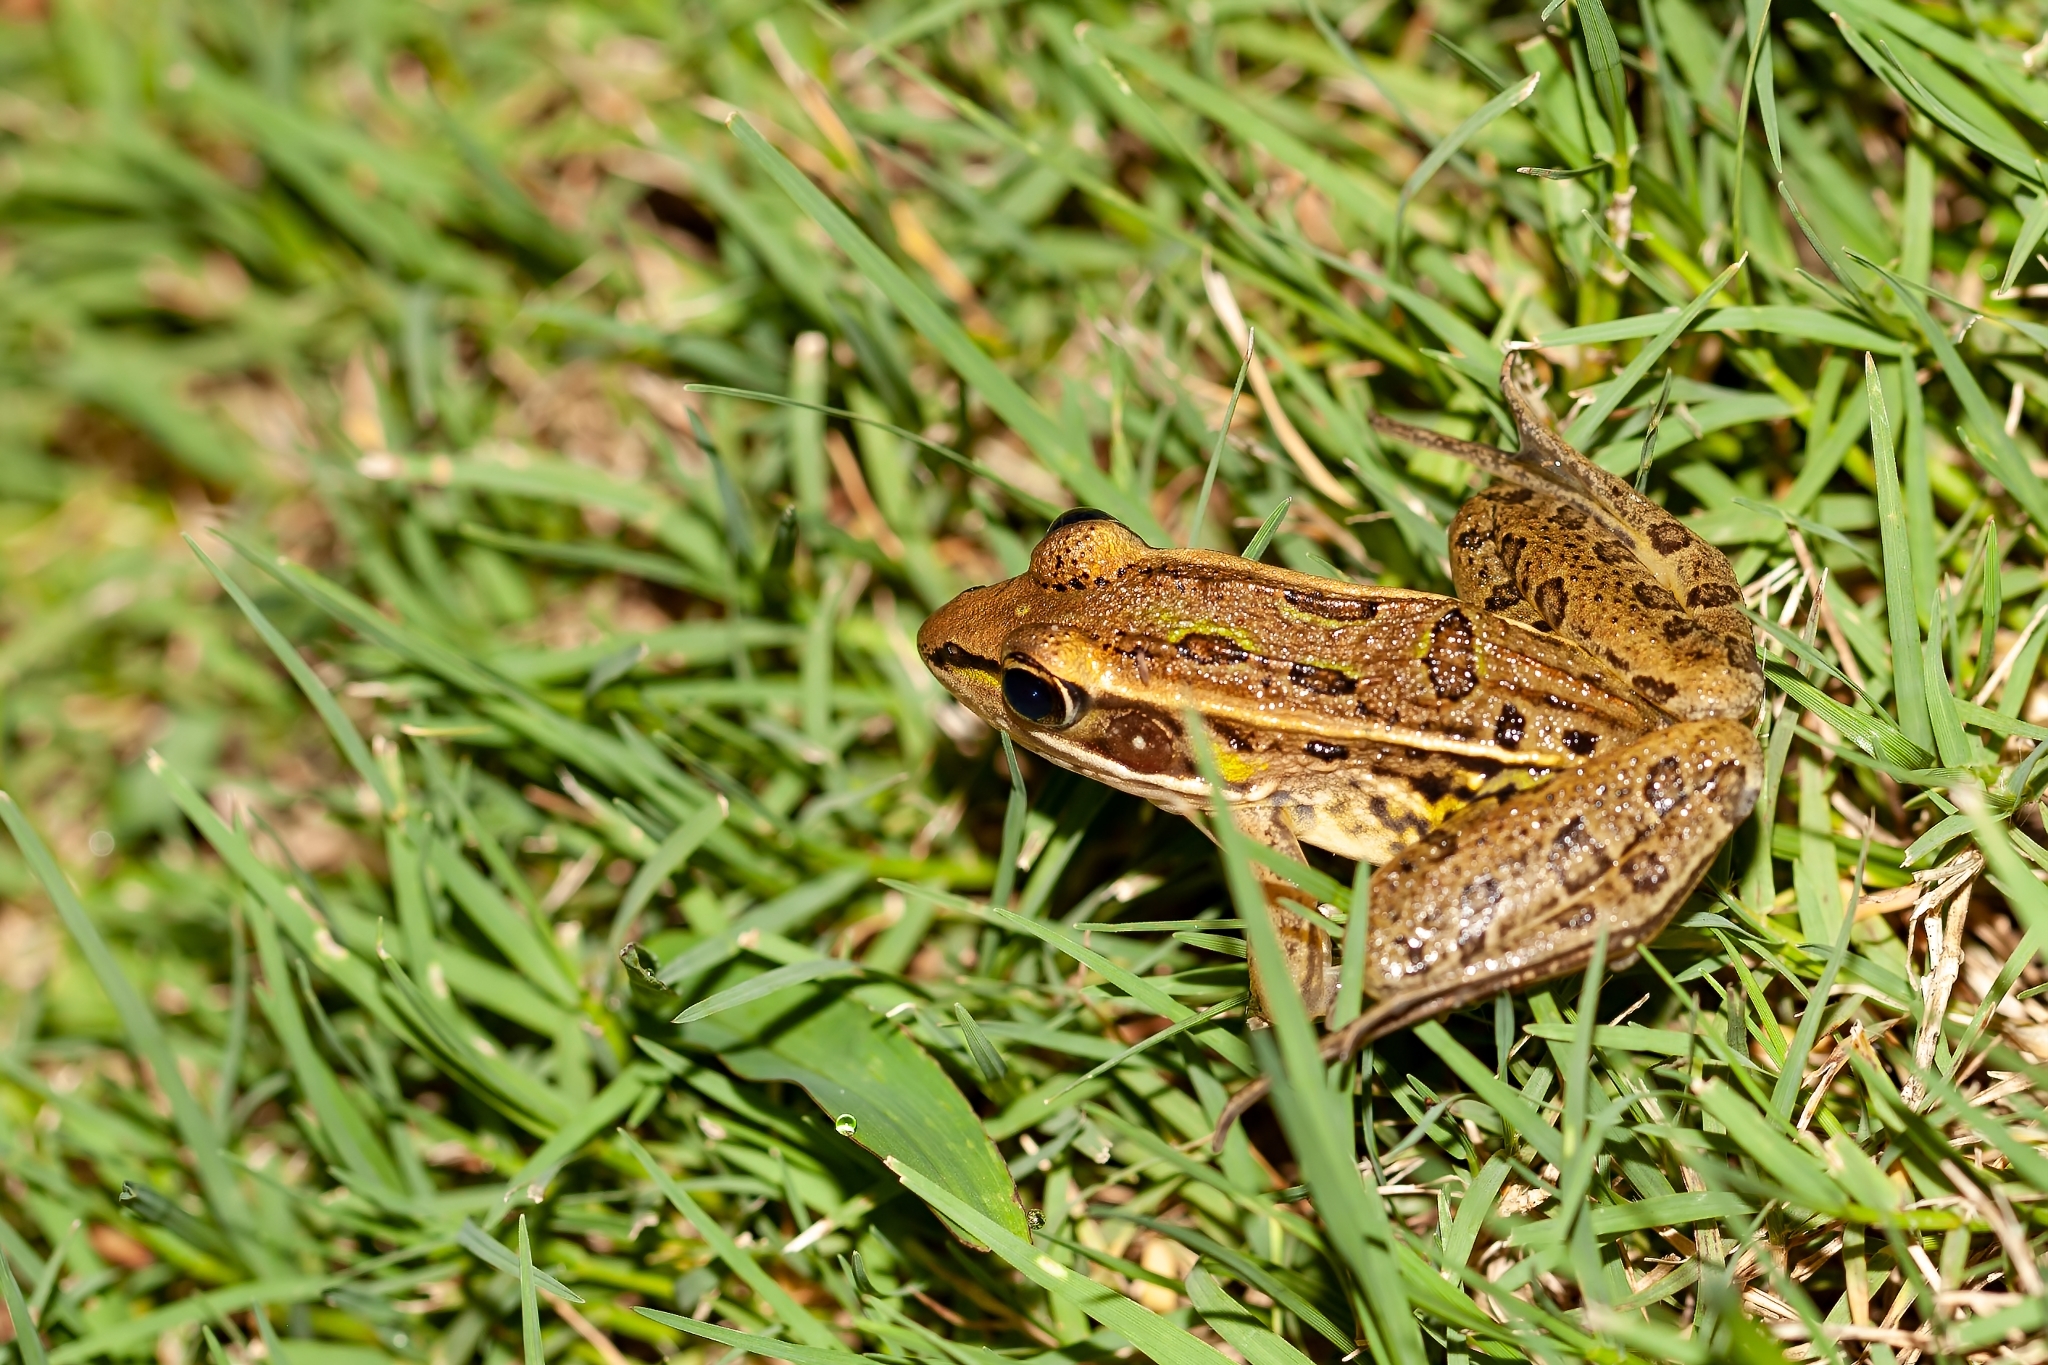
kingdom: Animalia
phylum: Chordata
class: Amphibia
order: Anura
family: Ranidae
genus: Lithobates
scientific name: Lithobates sphenocephalus
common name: Southern leopard frog
